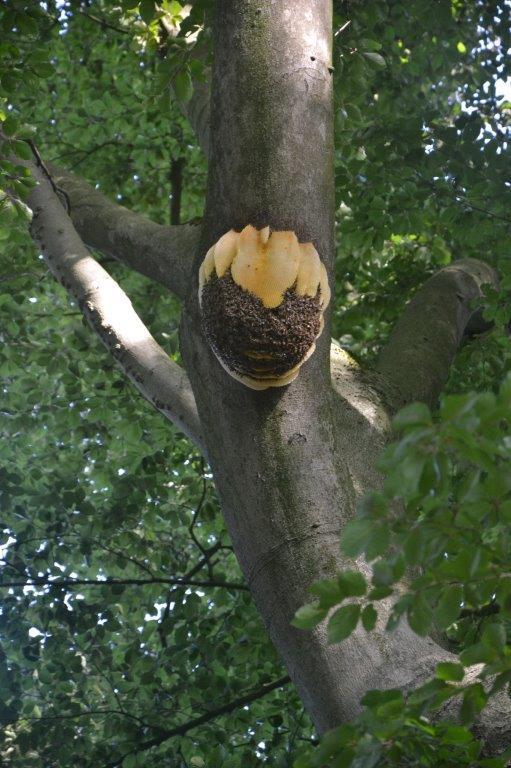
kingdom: Animalia
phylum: Arthropoda
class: Insecta
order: Hymenoptera
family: Apidae
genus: Apis
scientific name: Apis mellifera
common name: Honey bee
